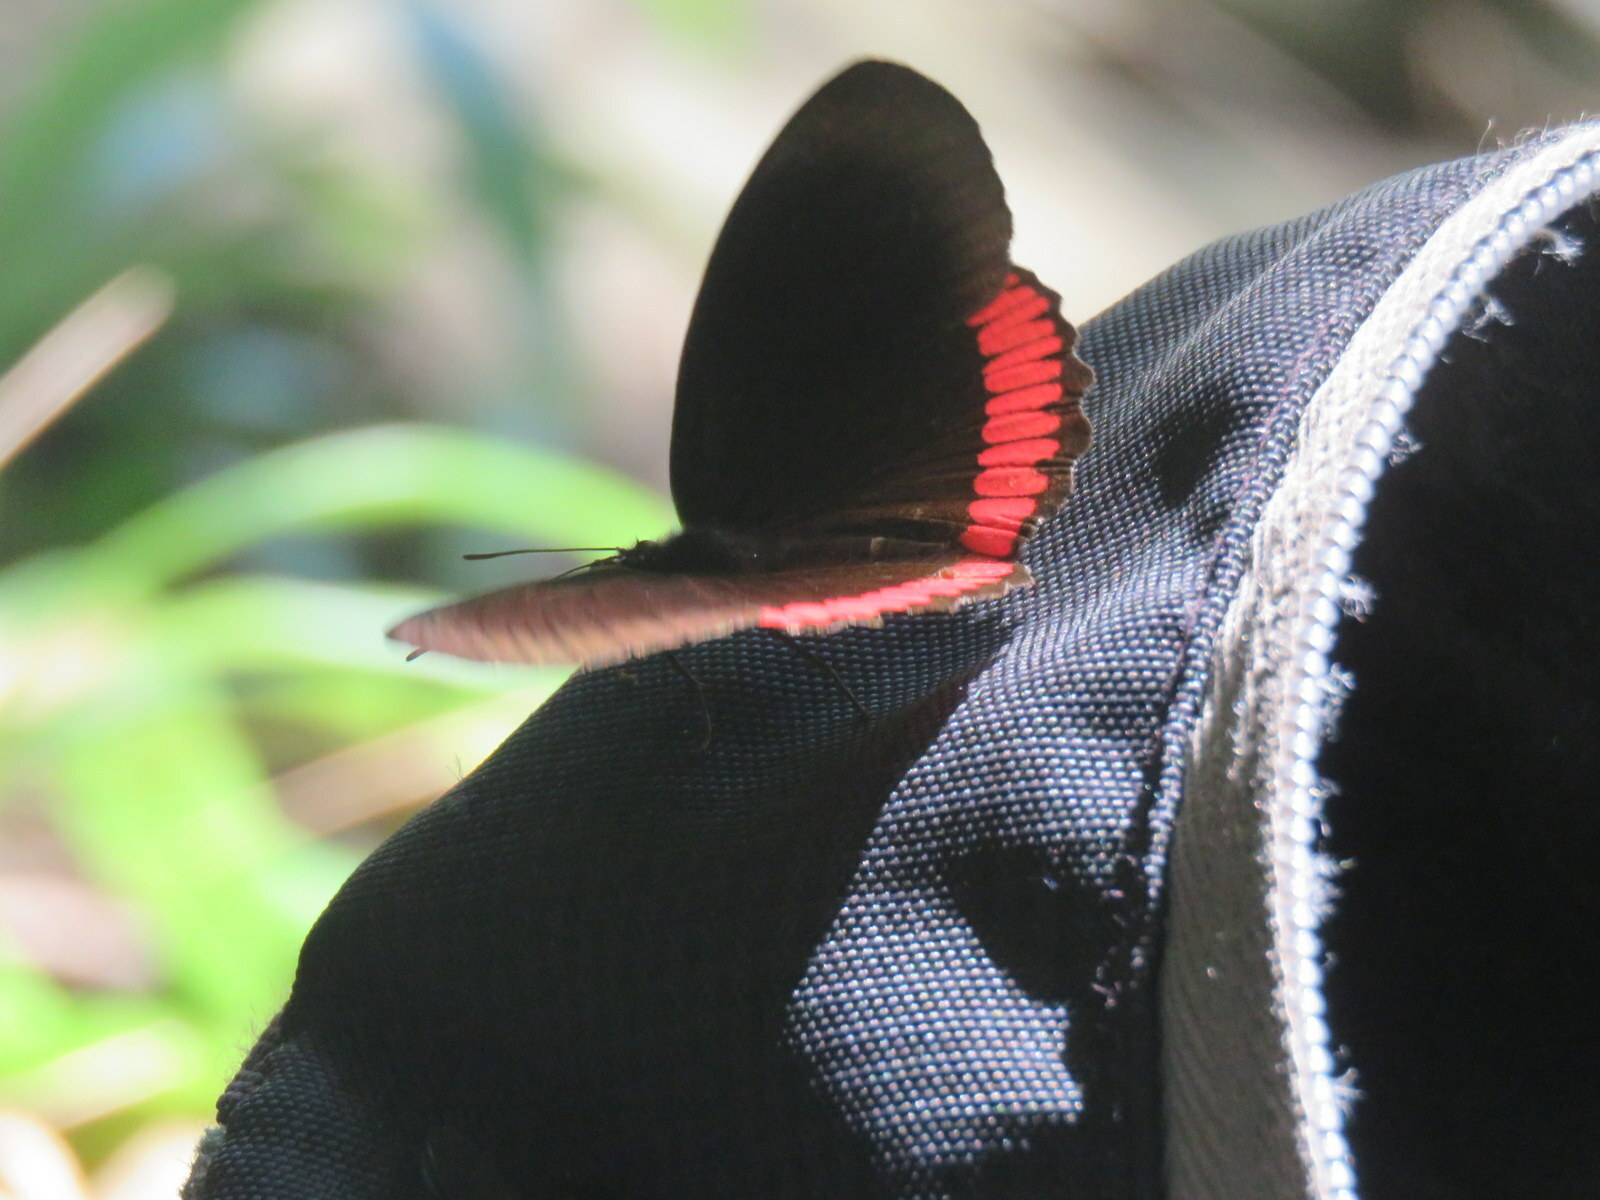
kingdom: Animalia
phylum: Arthropoda
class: Insecta
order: Lepidoptera
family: Sesiidae
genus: Sesia
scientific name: Sesia Biblis hyperia
